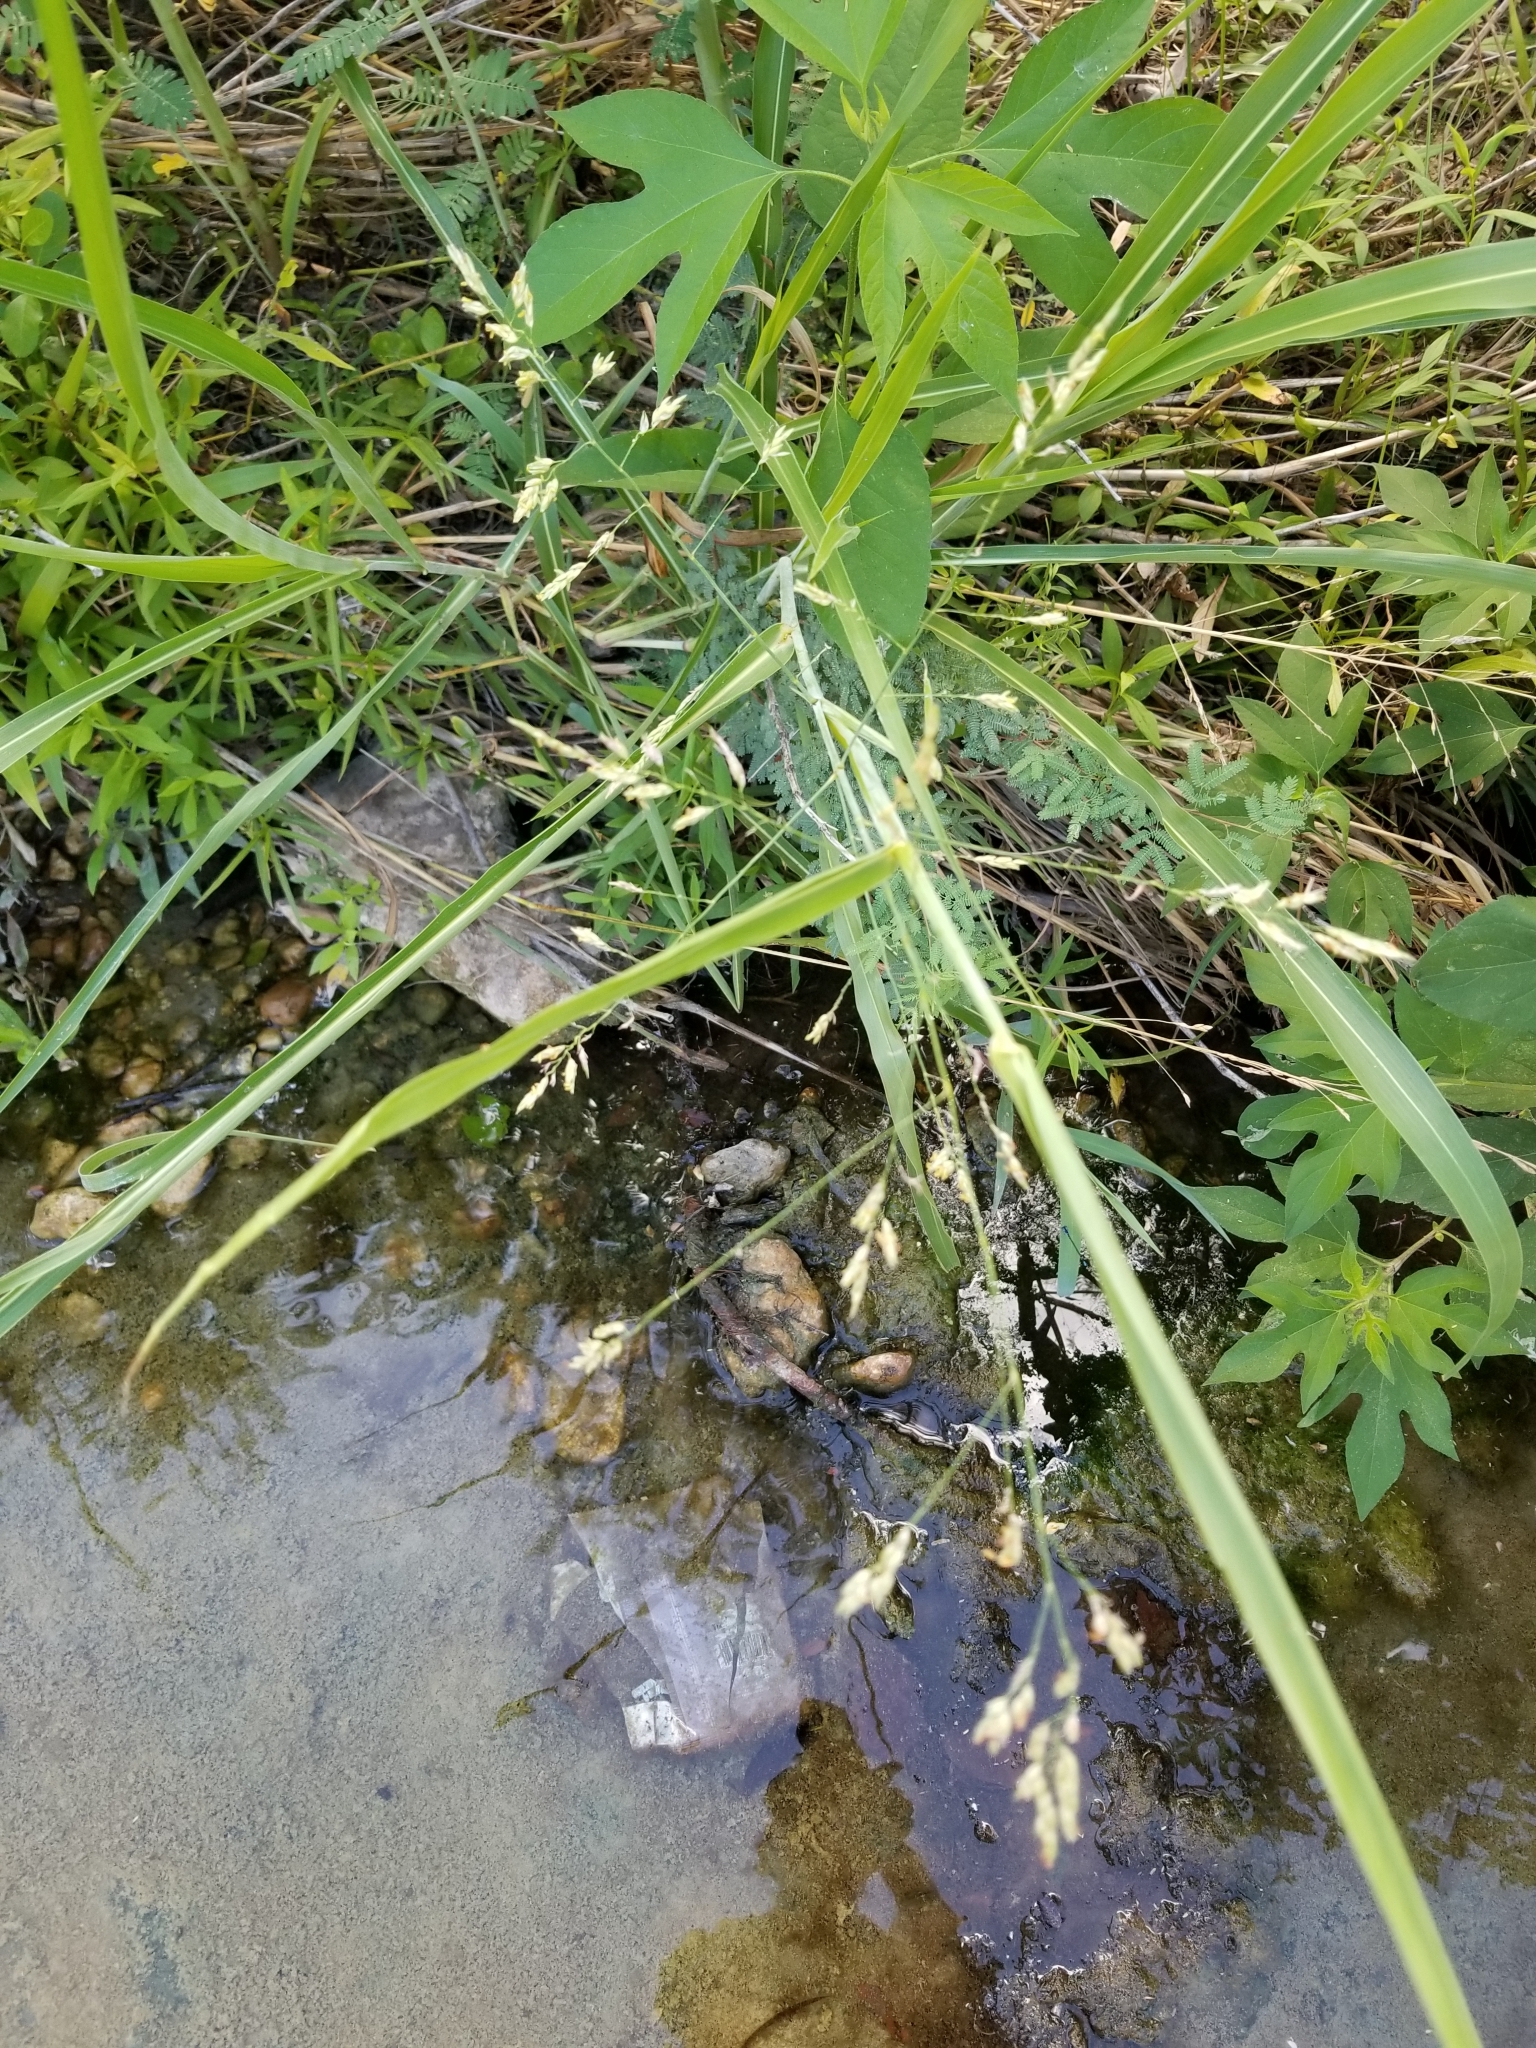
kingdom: Plantae
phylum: Tracheophyta
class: Liliopsida
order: Poales
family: Poaceae
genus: Sorghum
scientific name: Sorghum halepense
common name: Johnson-grass
